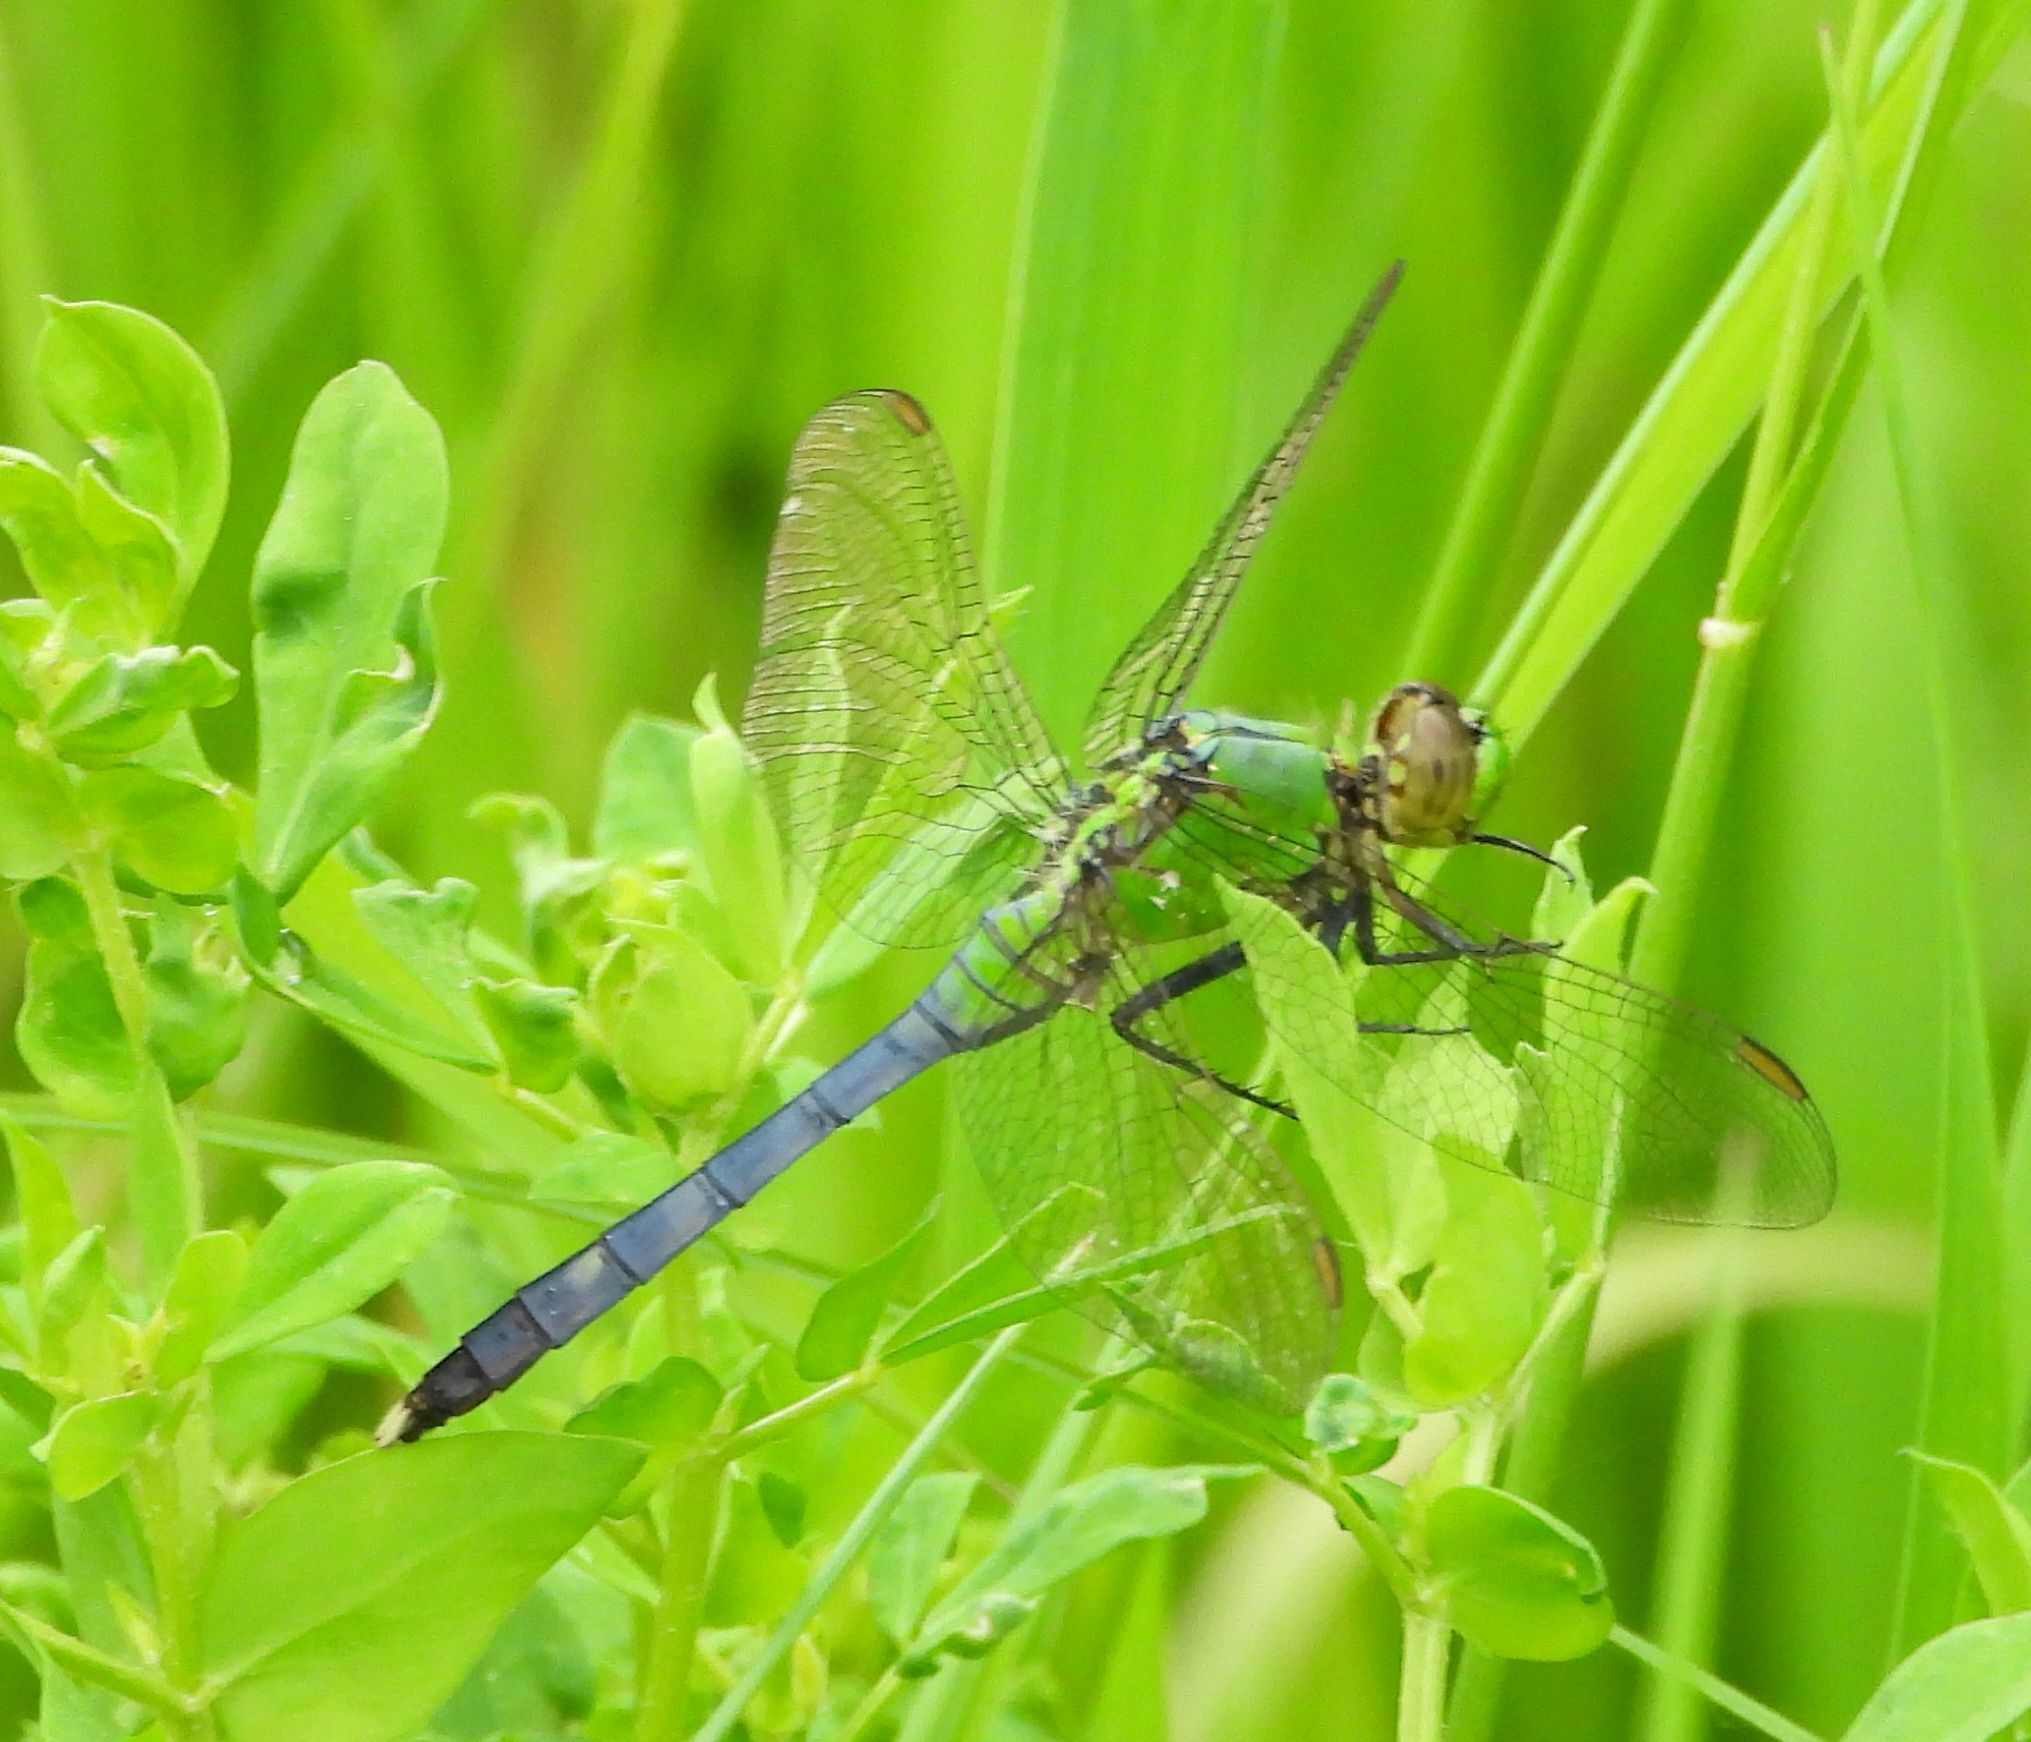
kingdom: Animalia
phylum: Arthropoda
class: Insecta
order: Odonata
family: Libellulidae
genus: Erythemis
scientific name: Erythemis simplicicollis
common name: Eastern pondhawk
